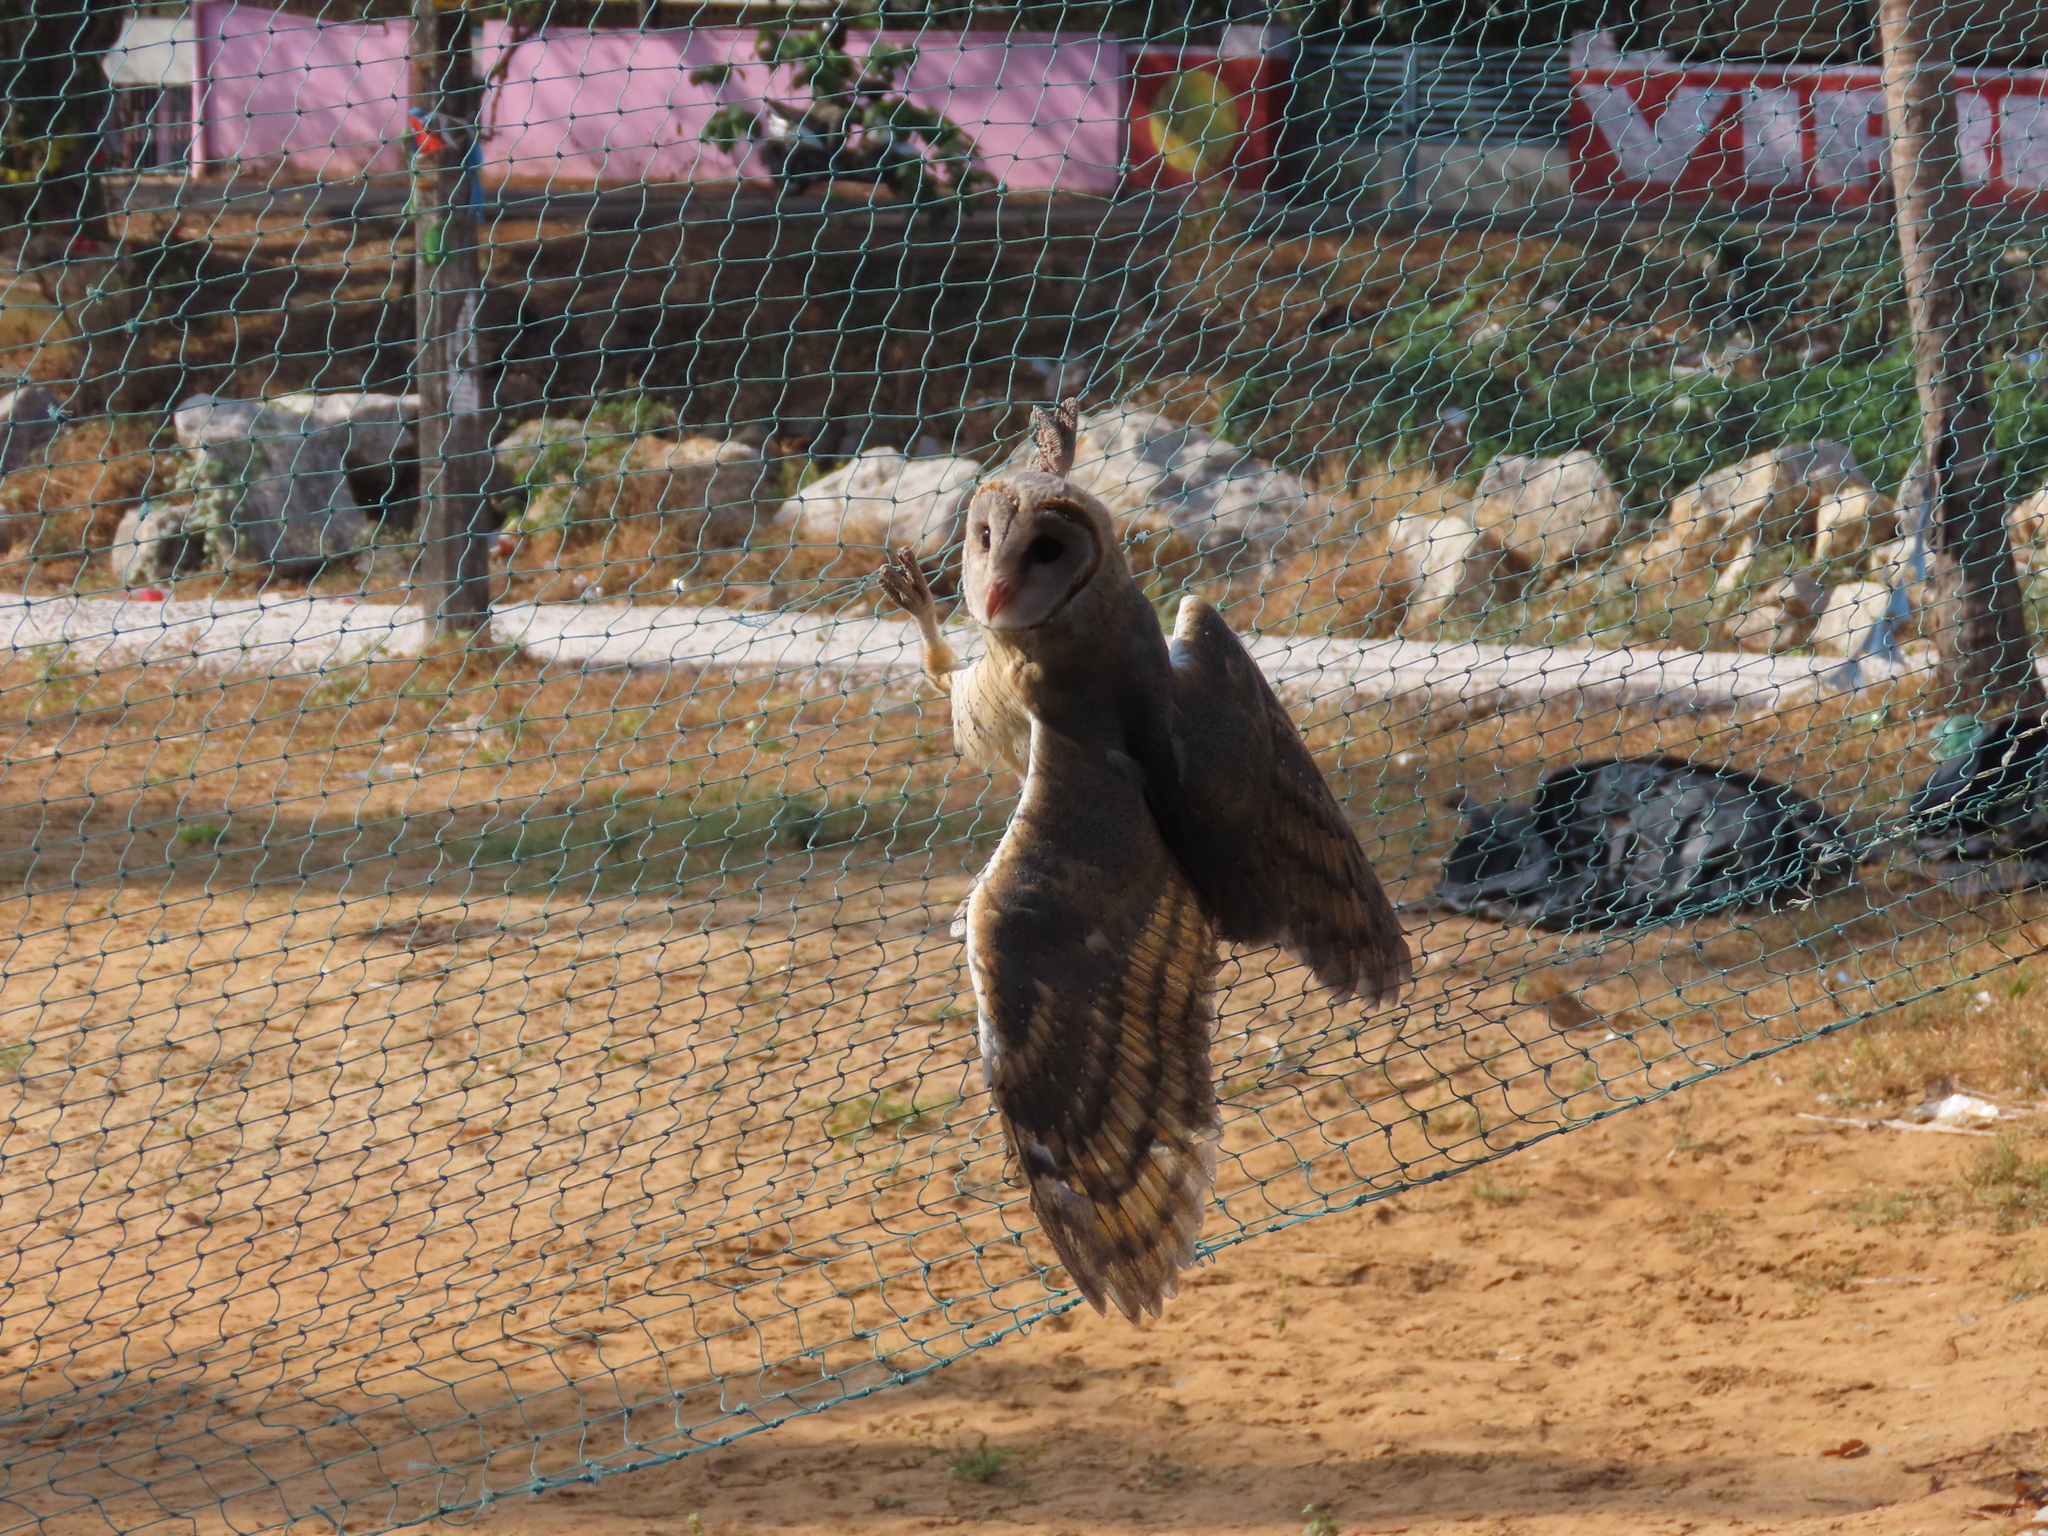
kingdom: Animalia
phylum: Chordata
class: Aves
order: Strigiformes
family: Tytonidae
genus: Tyto
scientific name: Tyto alba
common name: Barn owl
